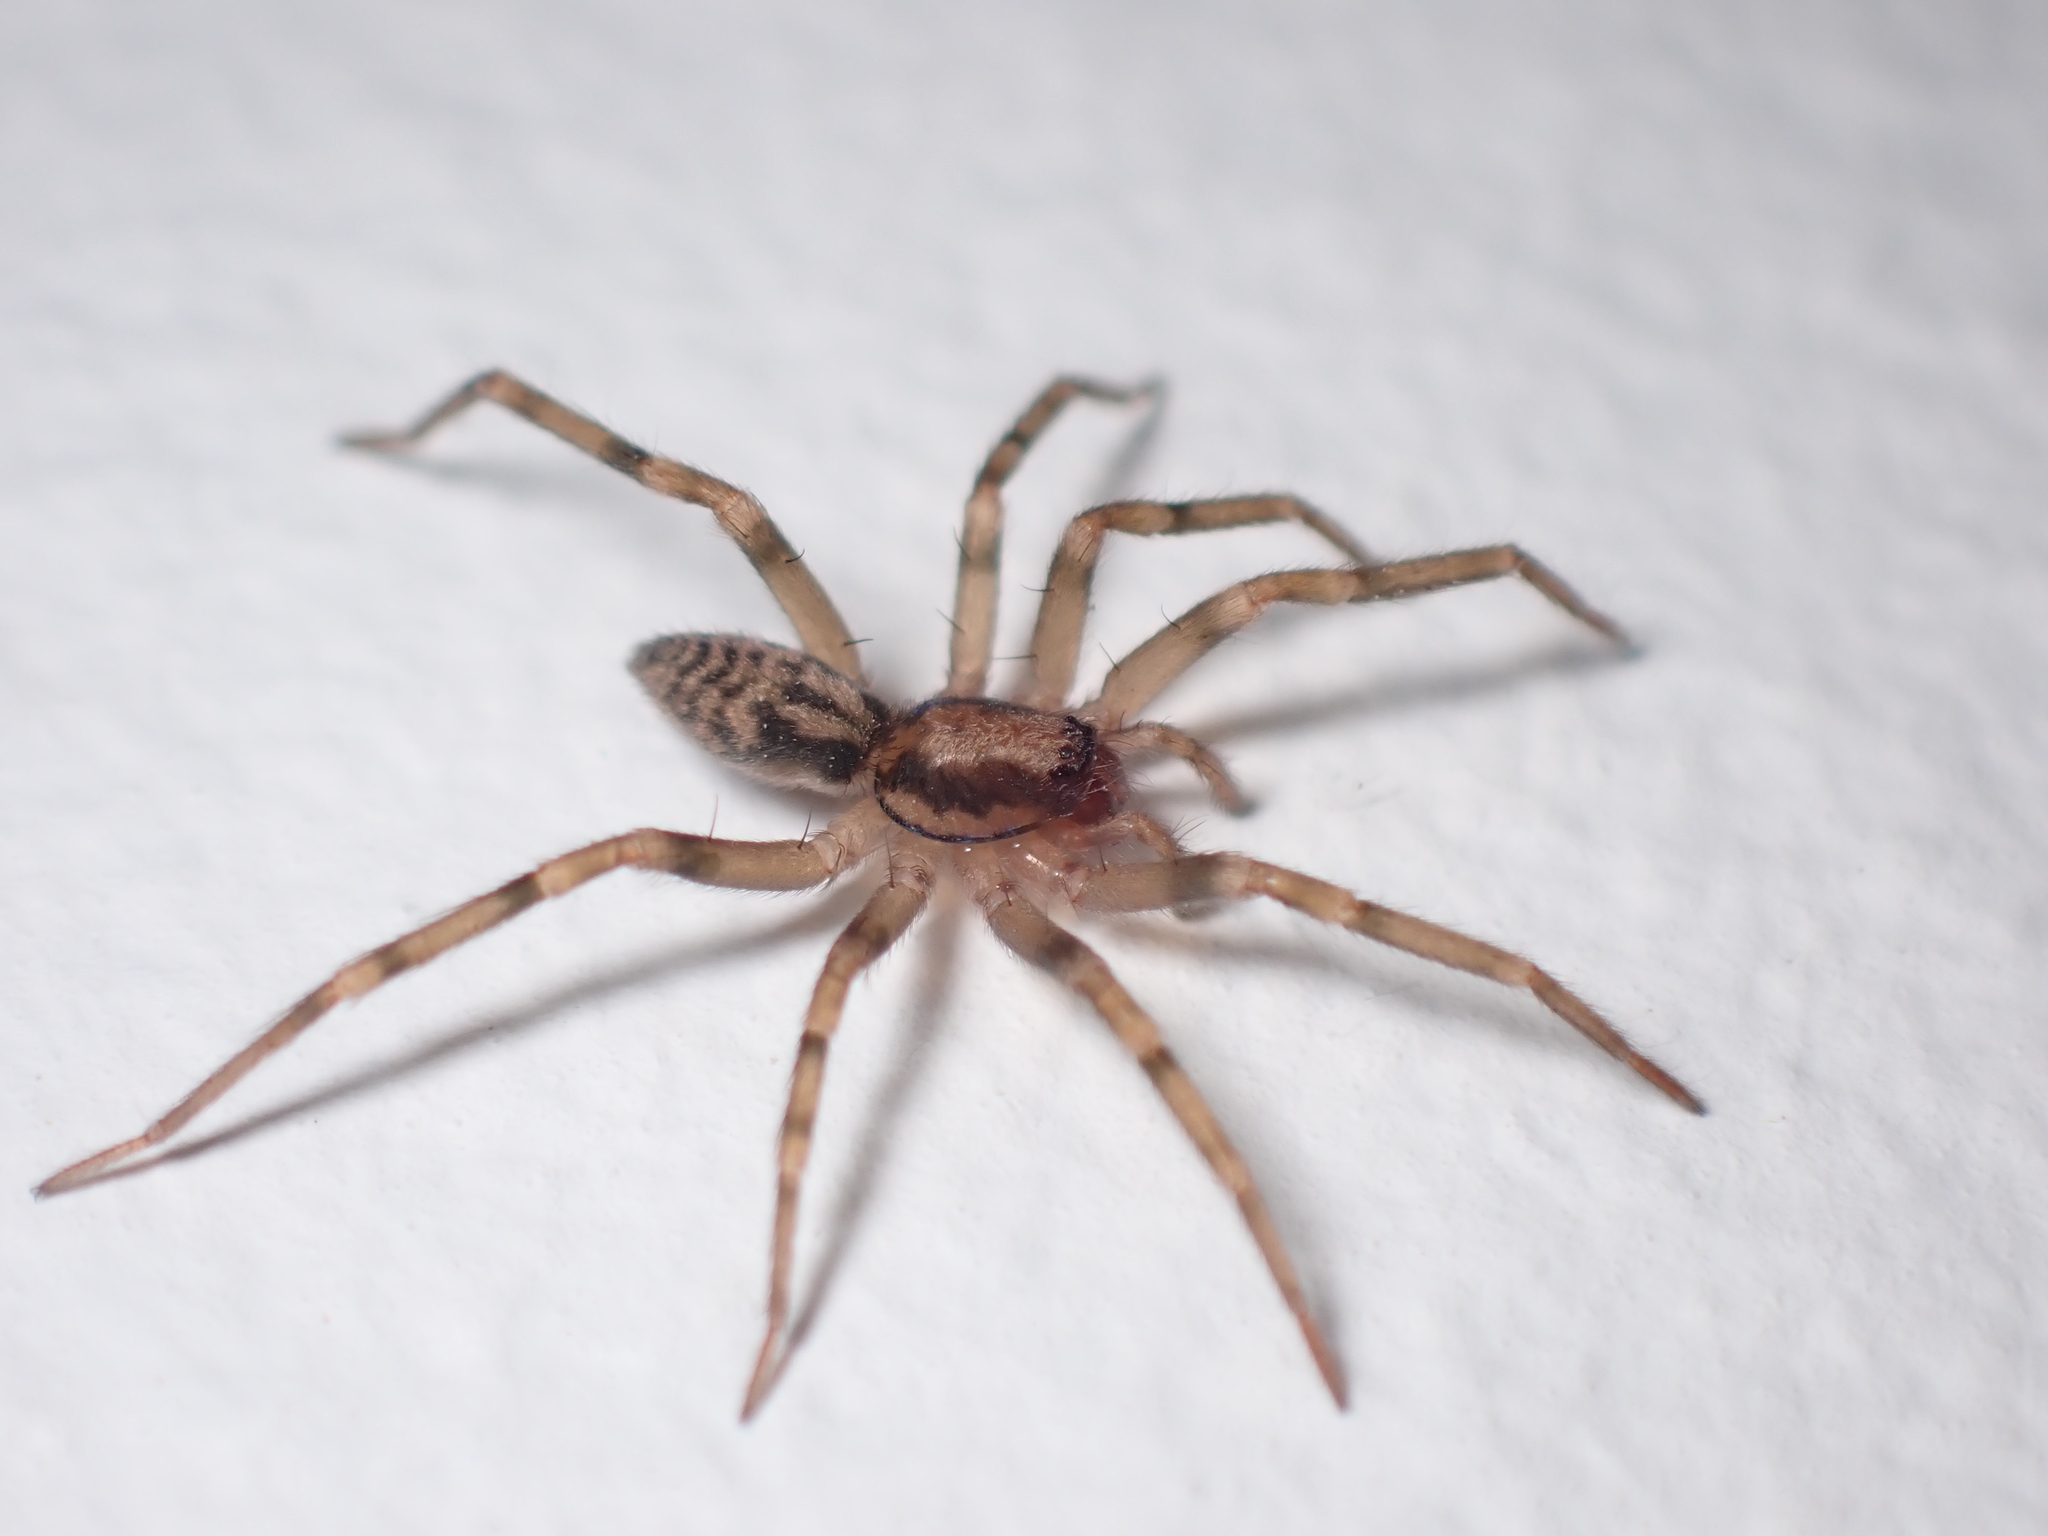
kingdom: Animalia
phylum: Arthropoda
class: Arachnida
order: Araneae
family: Liocranidae
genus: Liocranum
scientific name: Liocranum rupicola
